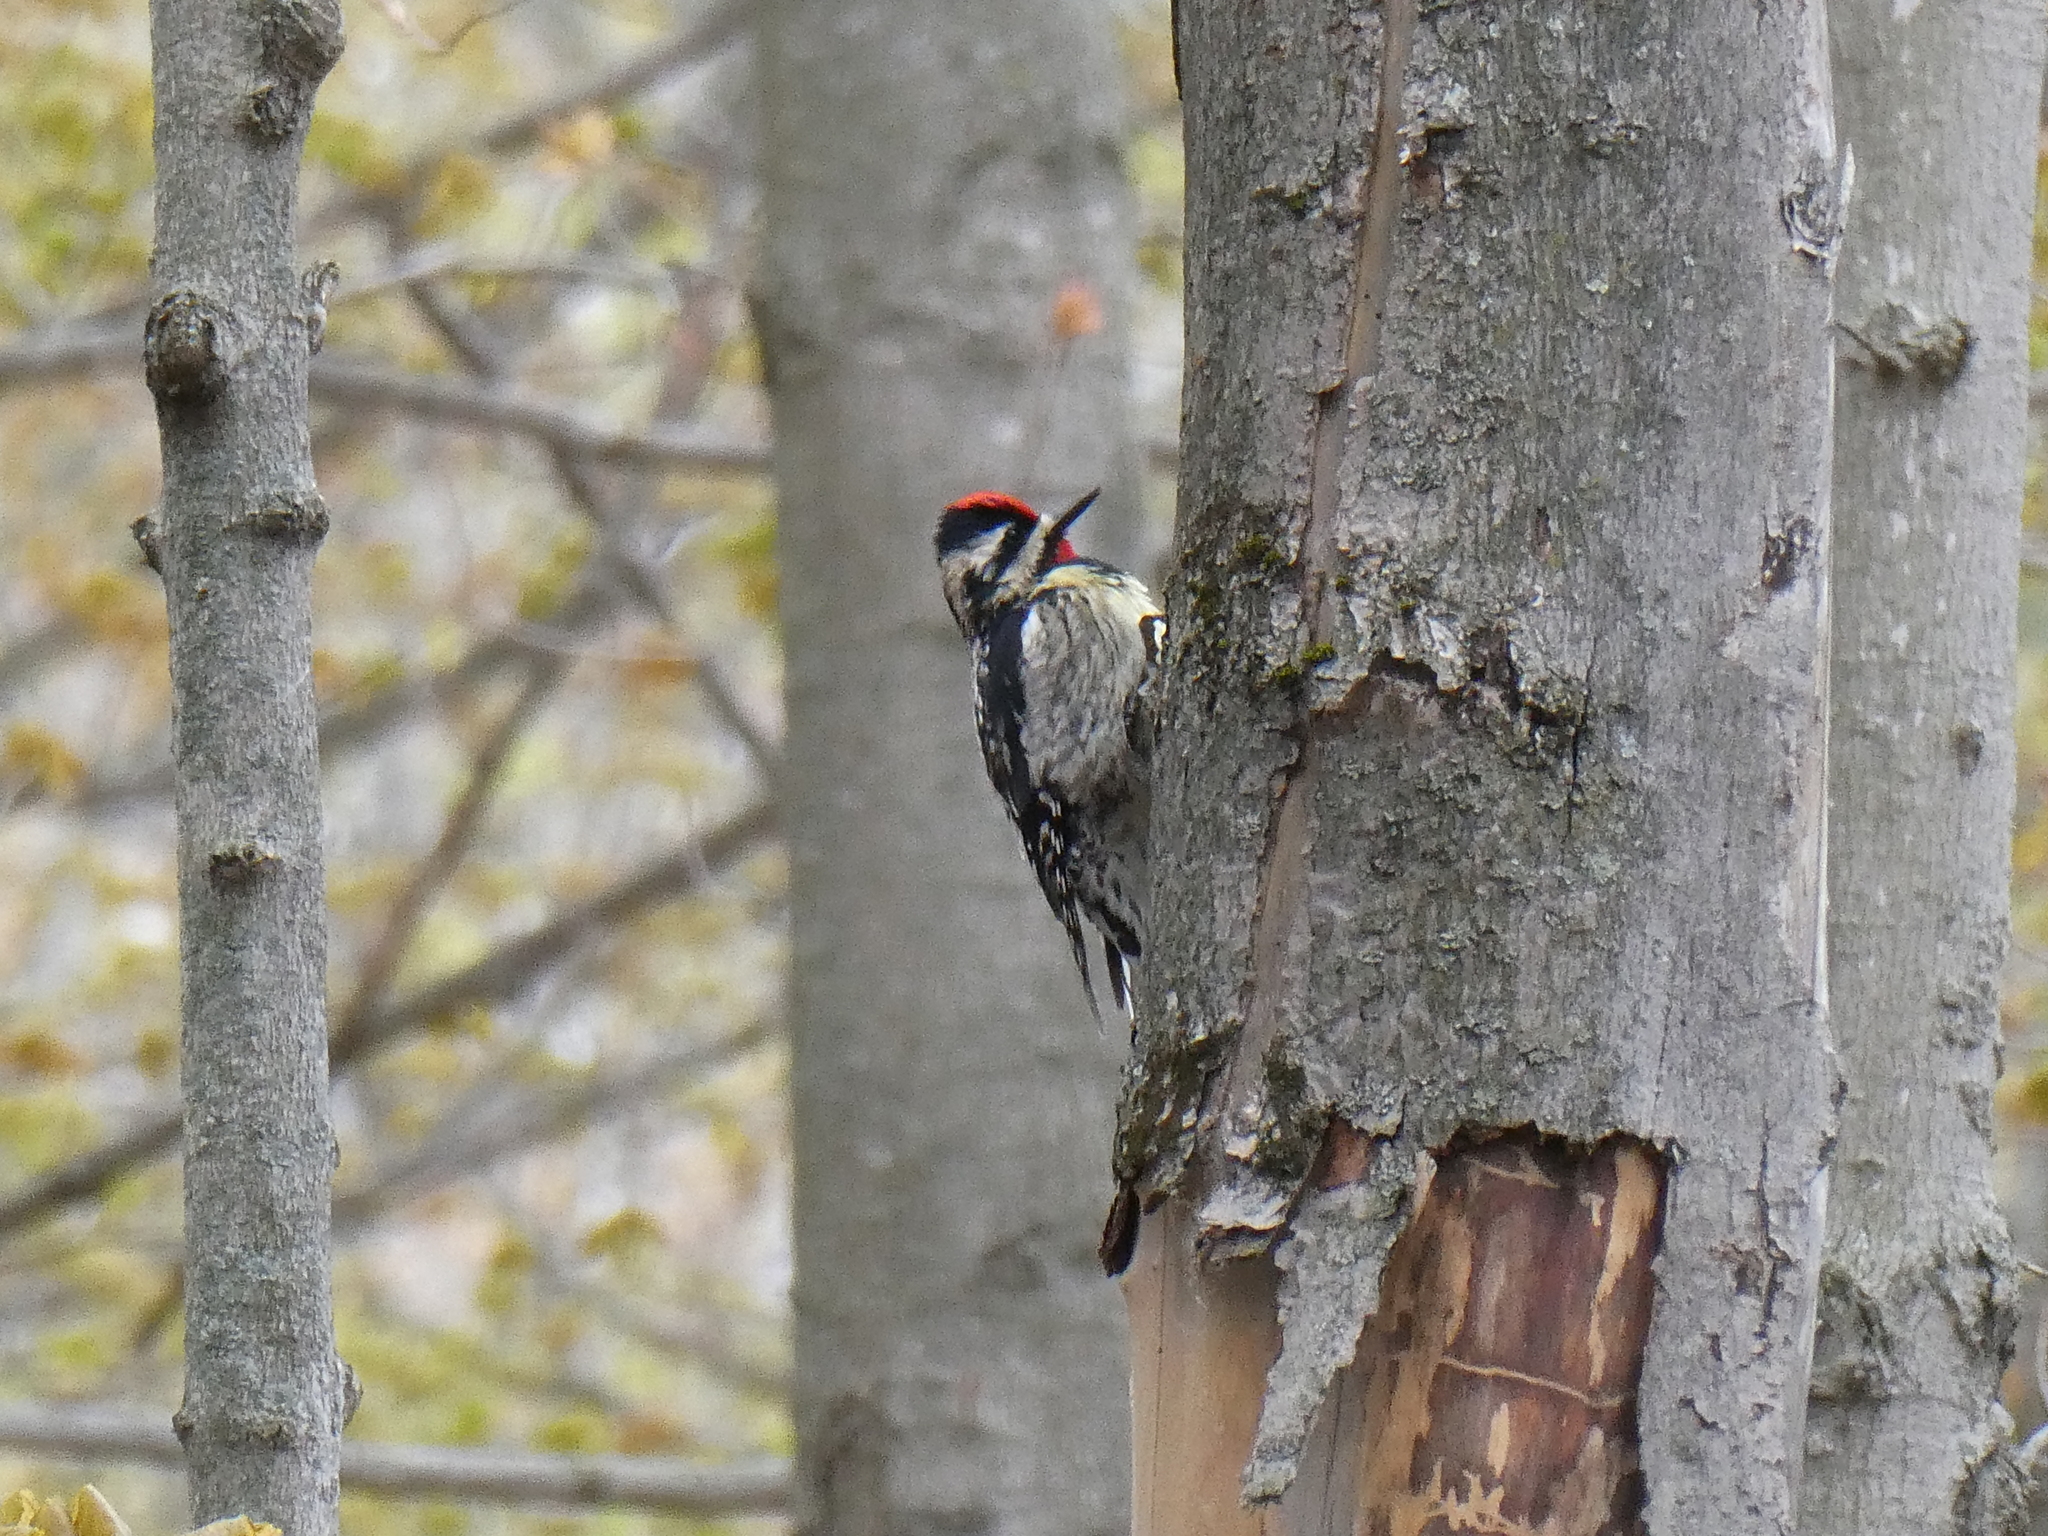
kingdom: Animalia
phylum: Chordata
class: Aves
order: Piciformes
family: Picidae
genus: Sphyrapicus
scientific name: Sphyrapicus varius
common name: Yellow-bellied sapsucker
